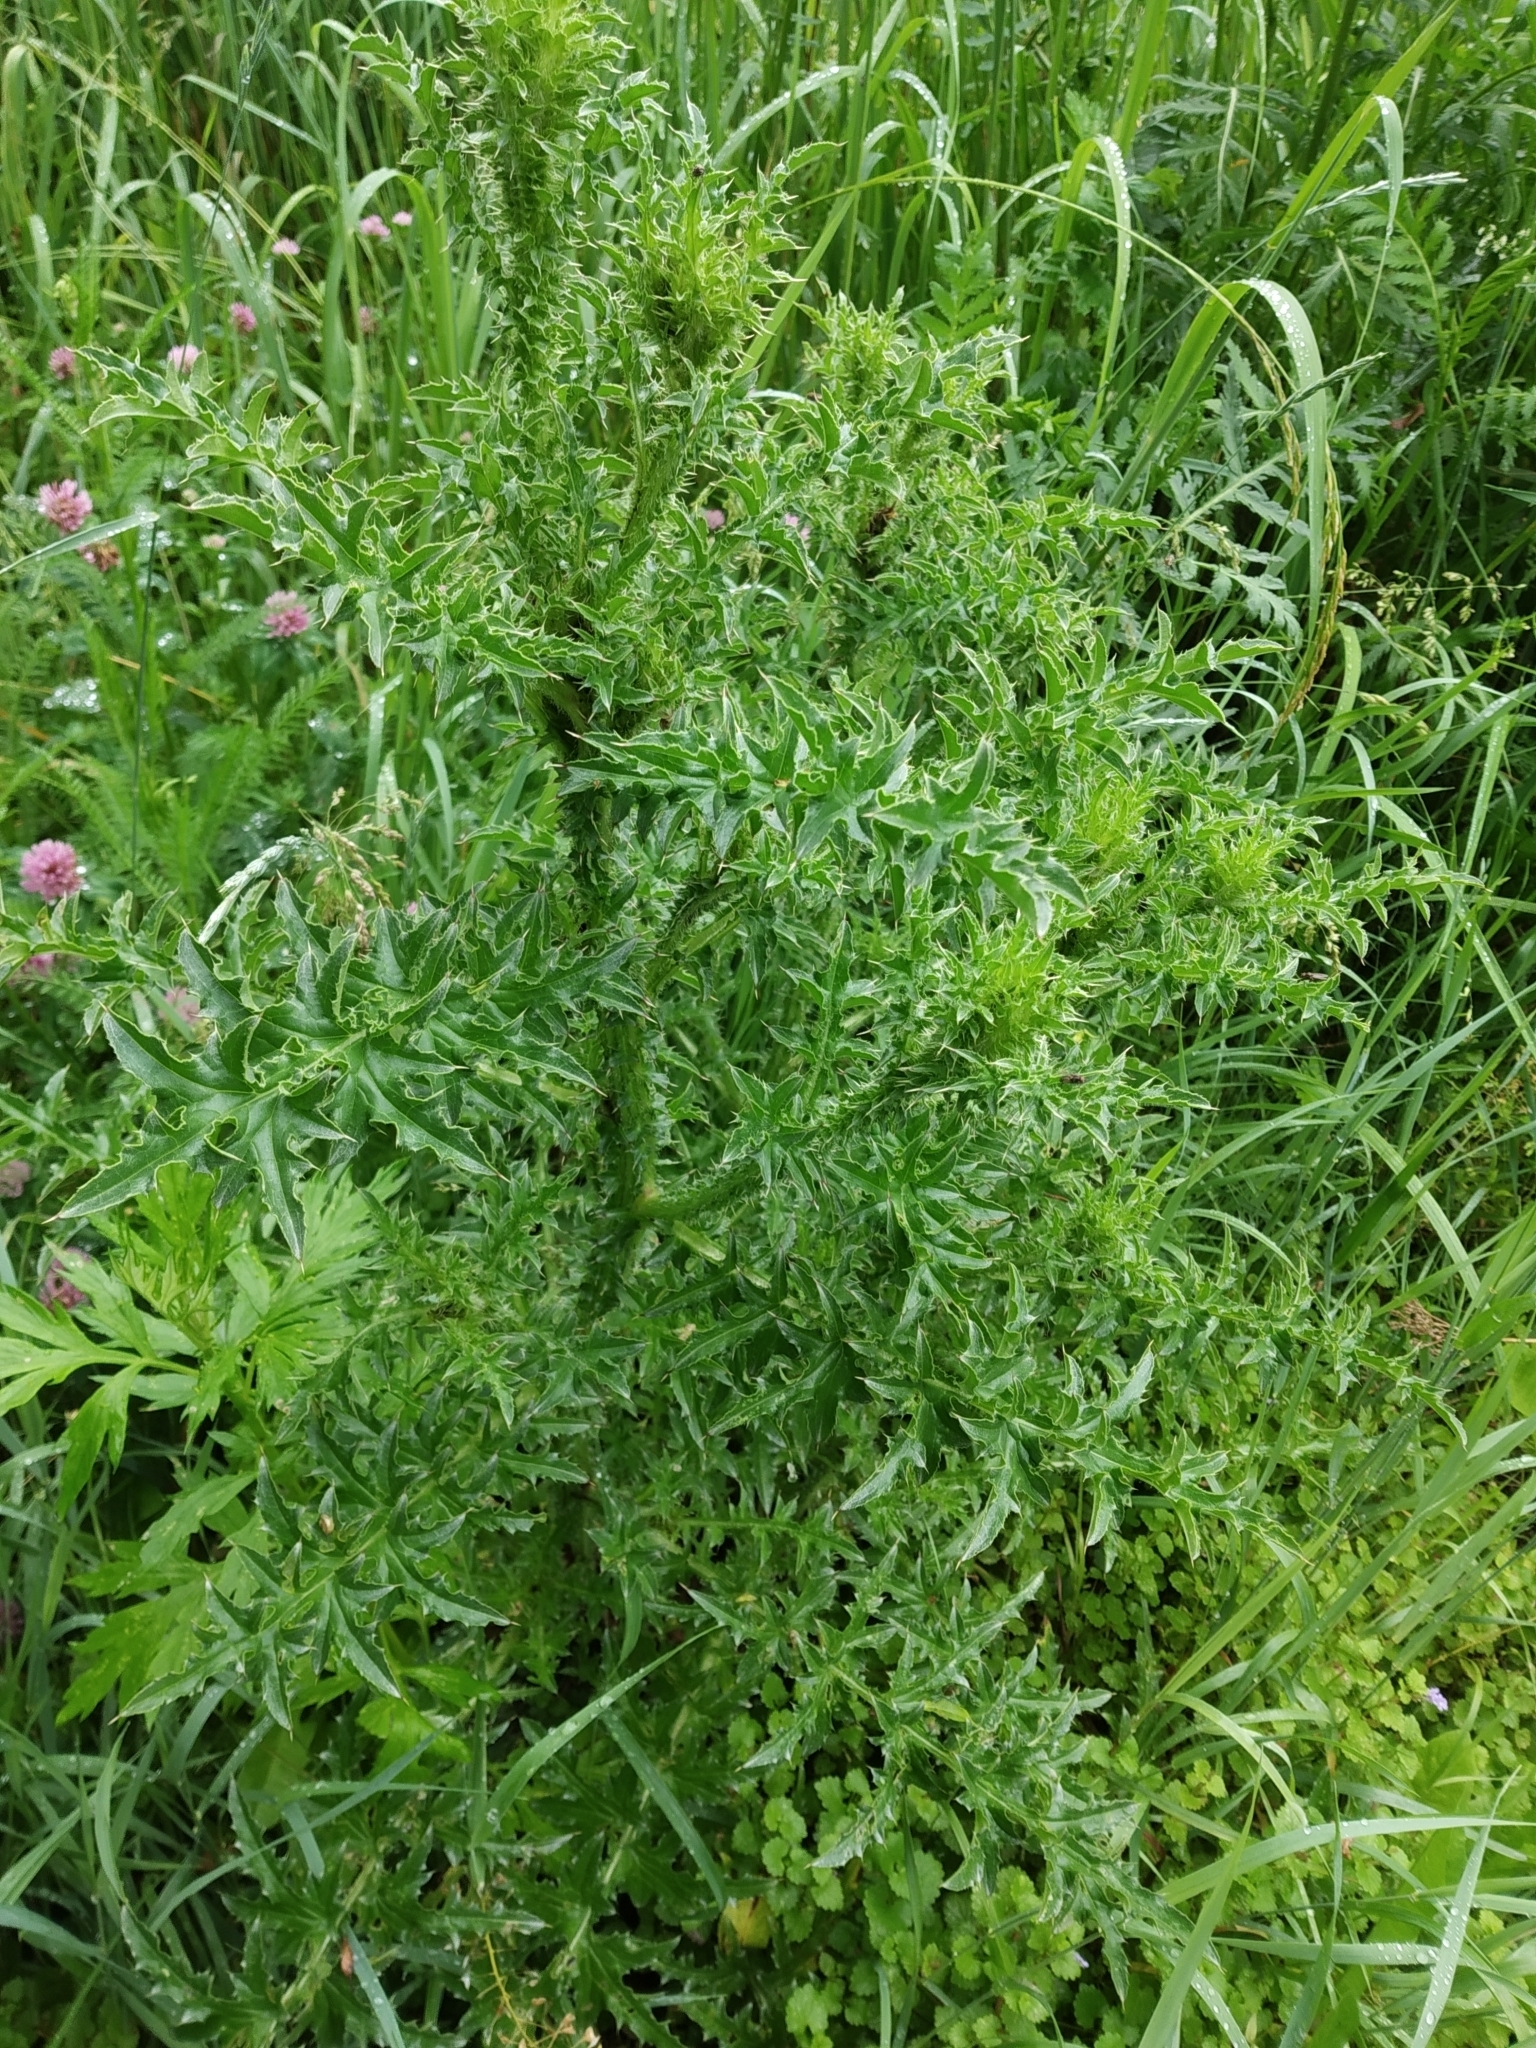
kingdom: Plantae
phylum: Tracheophyta
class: Magnoliopsida
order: Asterales
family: Asteraceae
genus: Carduus
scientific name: Carduus acanthoides
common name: Plumeless thistle
